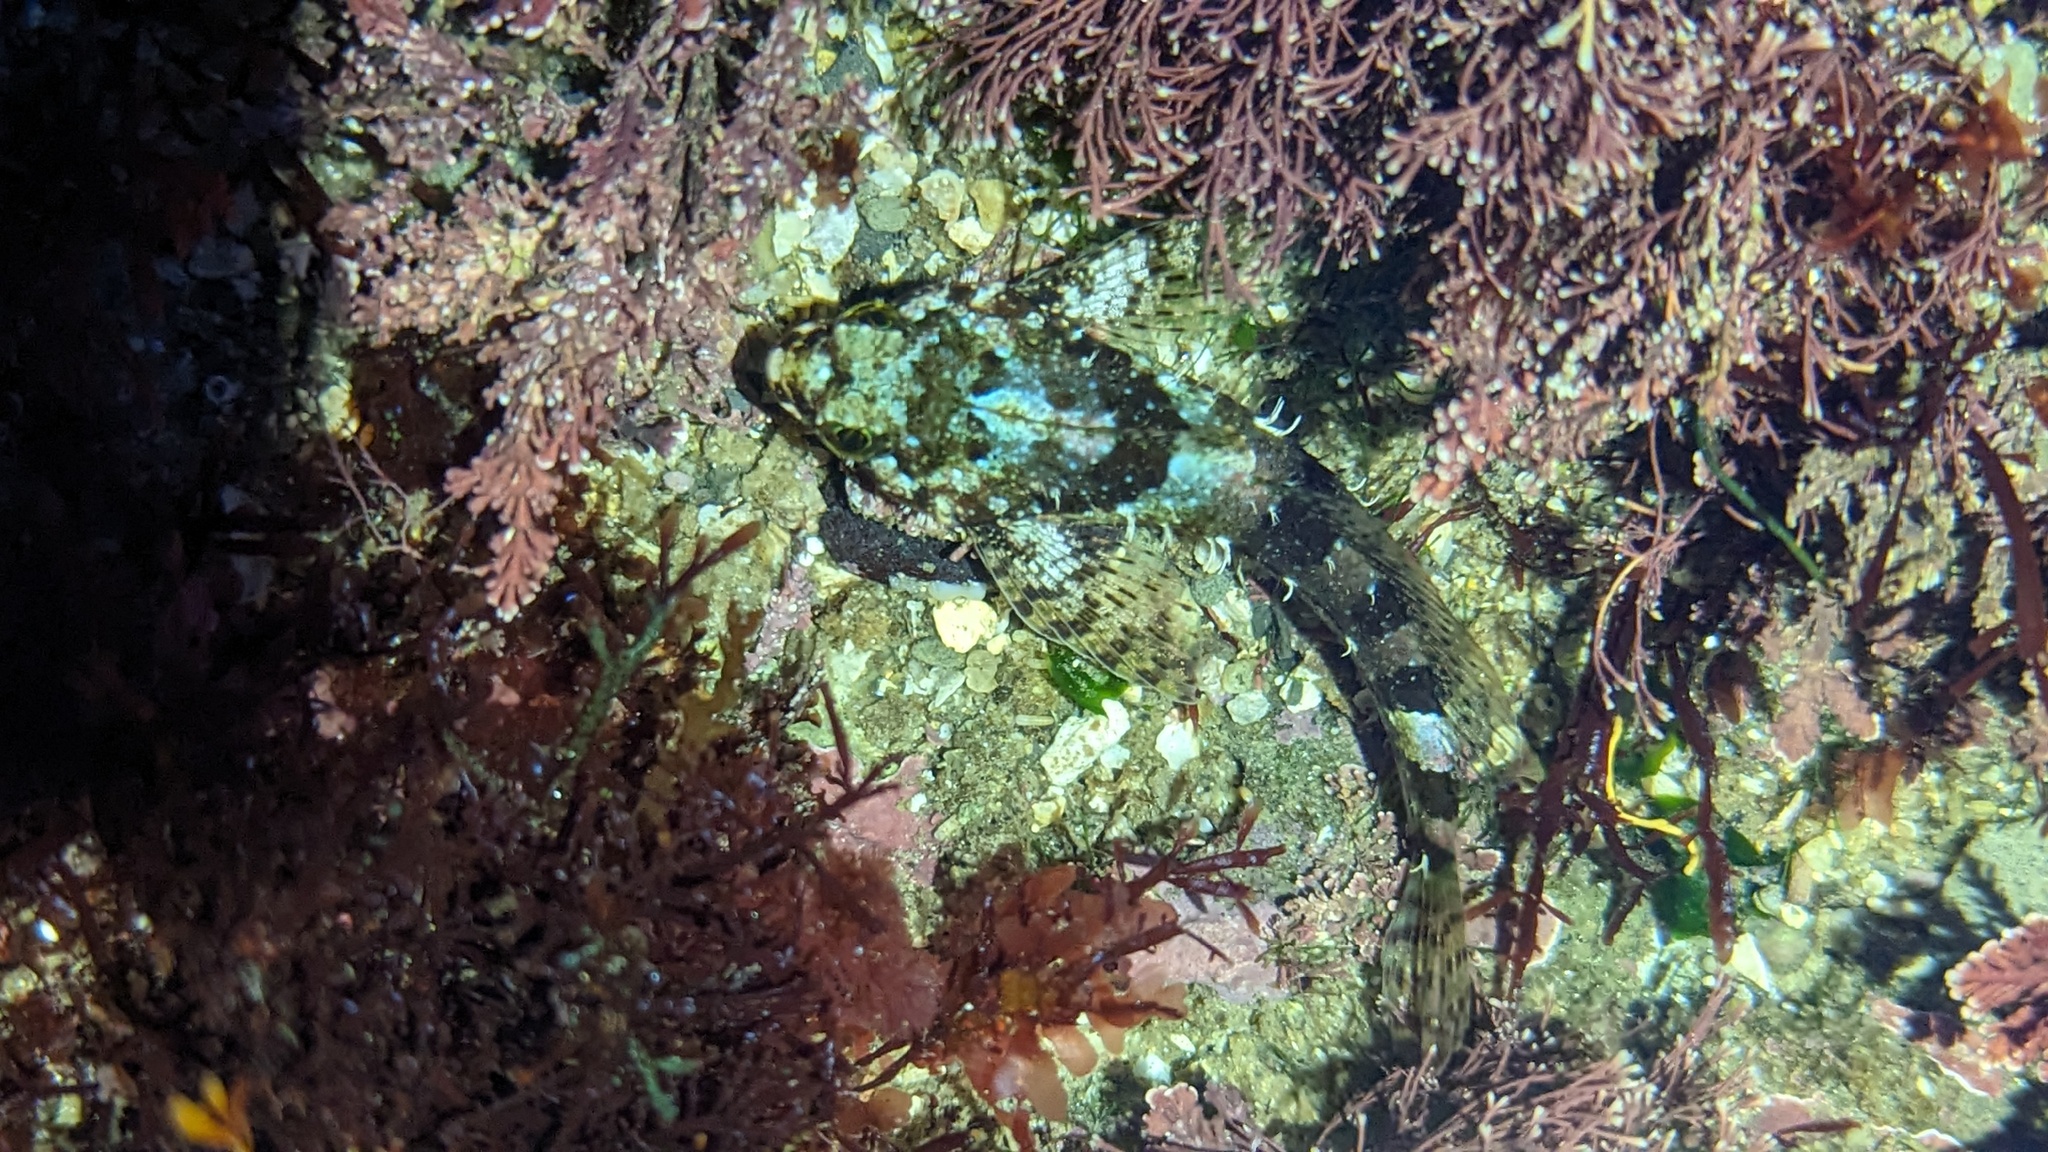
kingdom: Animalia
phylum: Chordata
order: Scorpaeniformes
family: Cottidae
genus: Clinocottus
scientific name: Clinocottus analis
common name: Woolly sculpin
